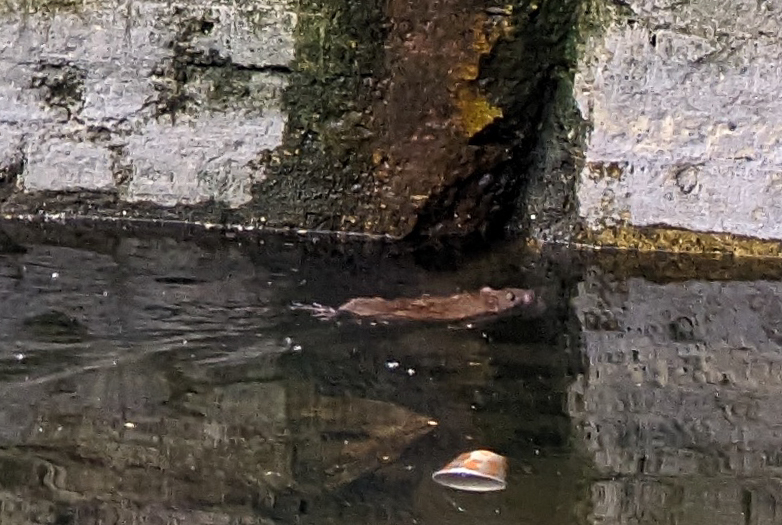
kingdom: Animalia
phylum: Chordata
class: Mammalia
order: Rodentia
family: Muridae
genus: Rattus
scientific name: Rattus norvegicus
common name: Brown rat
